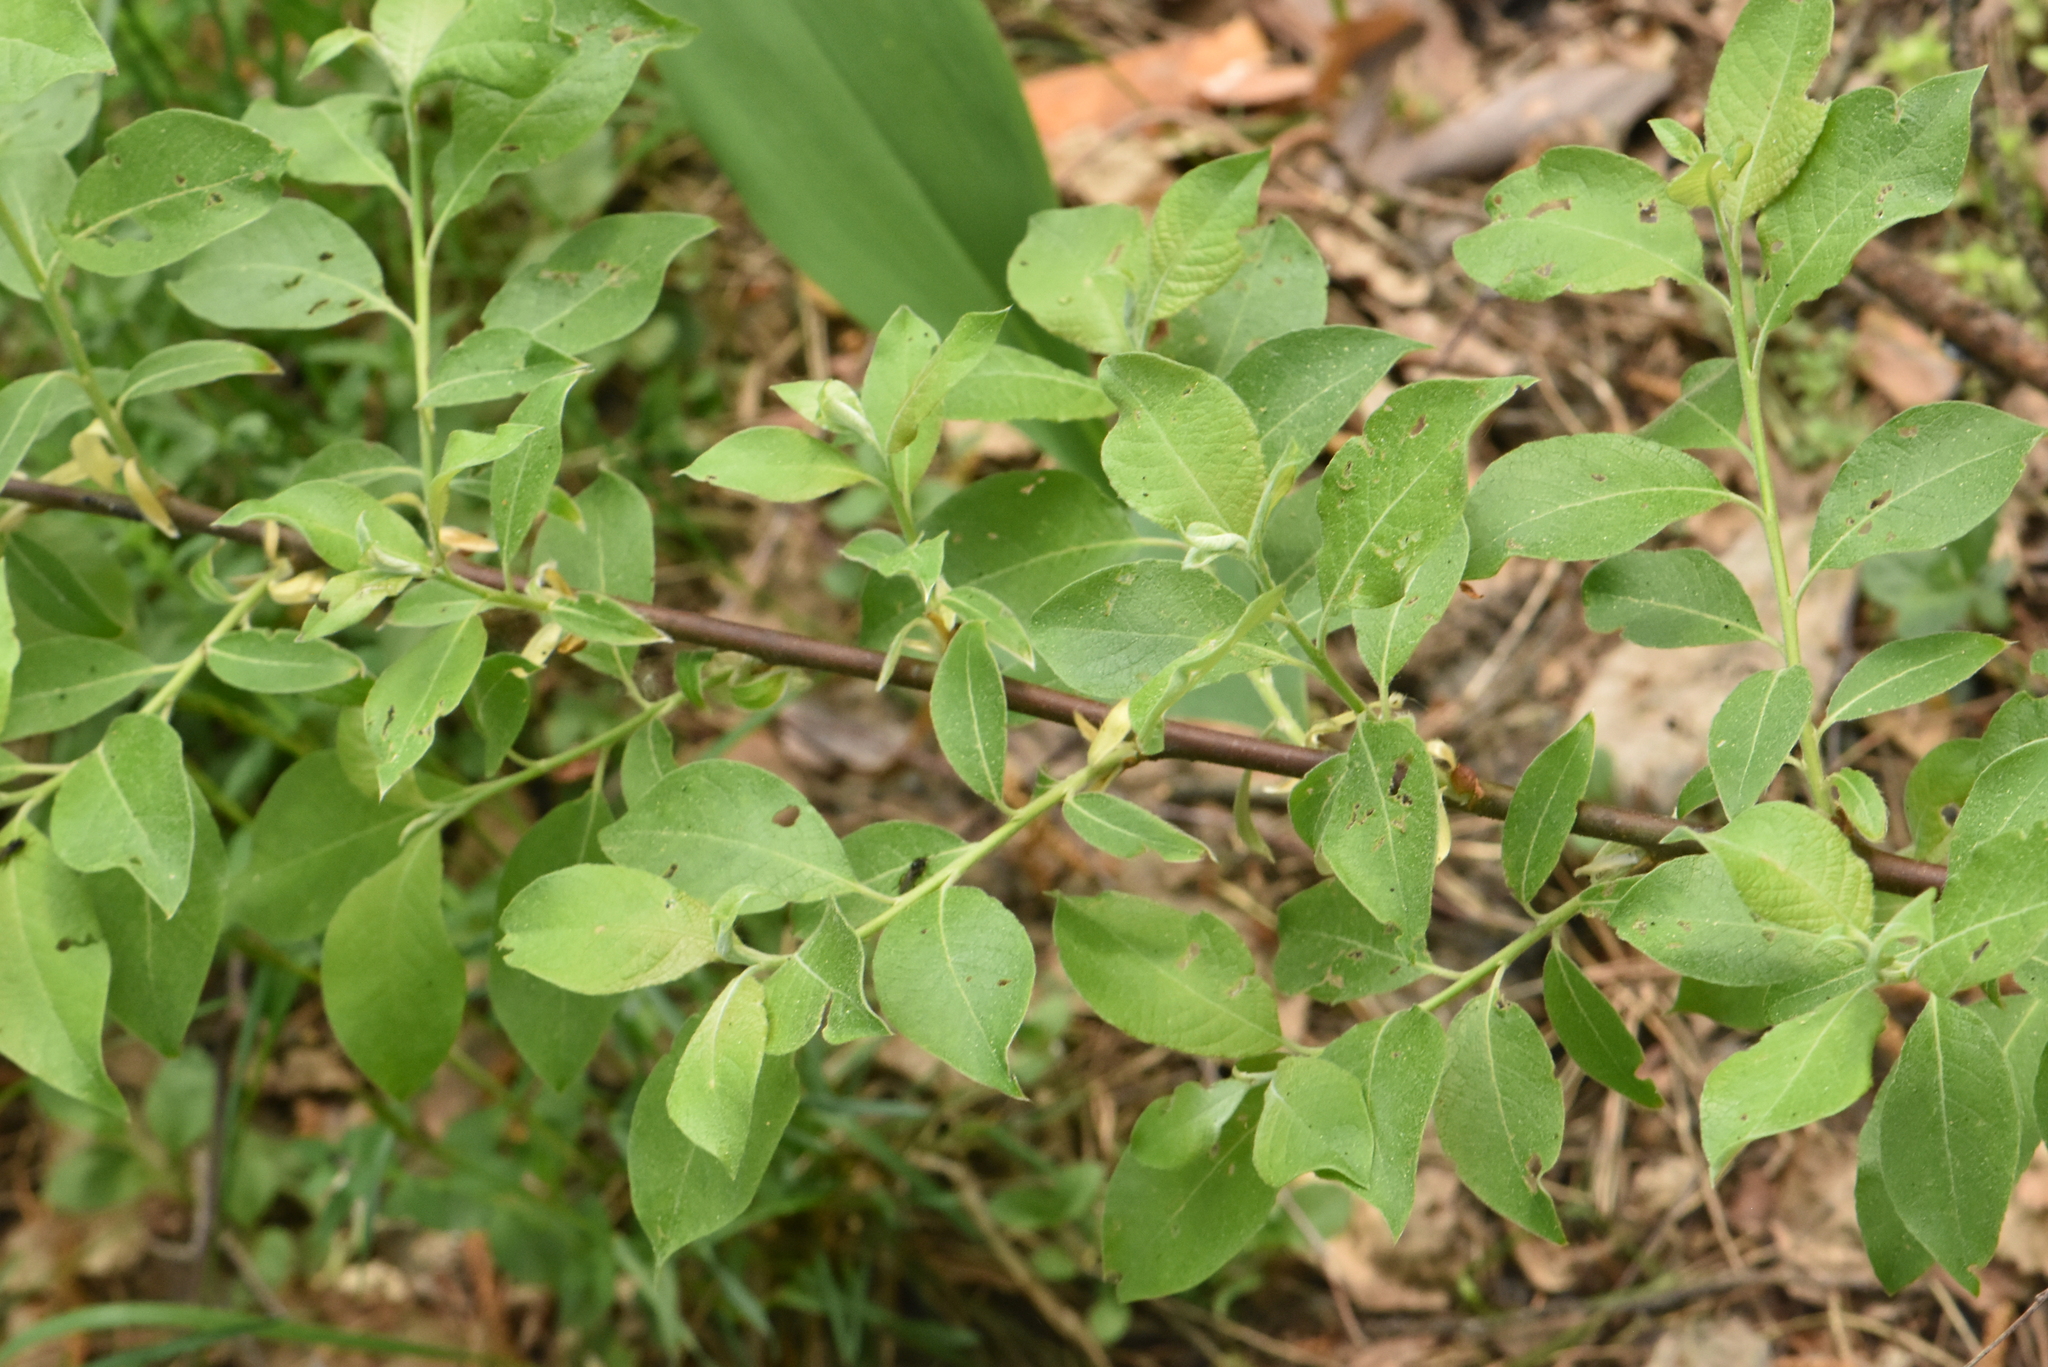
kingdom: Plantae
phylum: Tracheophyta
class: Magnoliopsida
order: Malpighiales
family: Salicaceae
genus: Salix
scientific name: Salix caprea
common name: Goat willow
